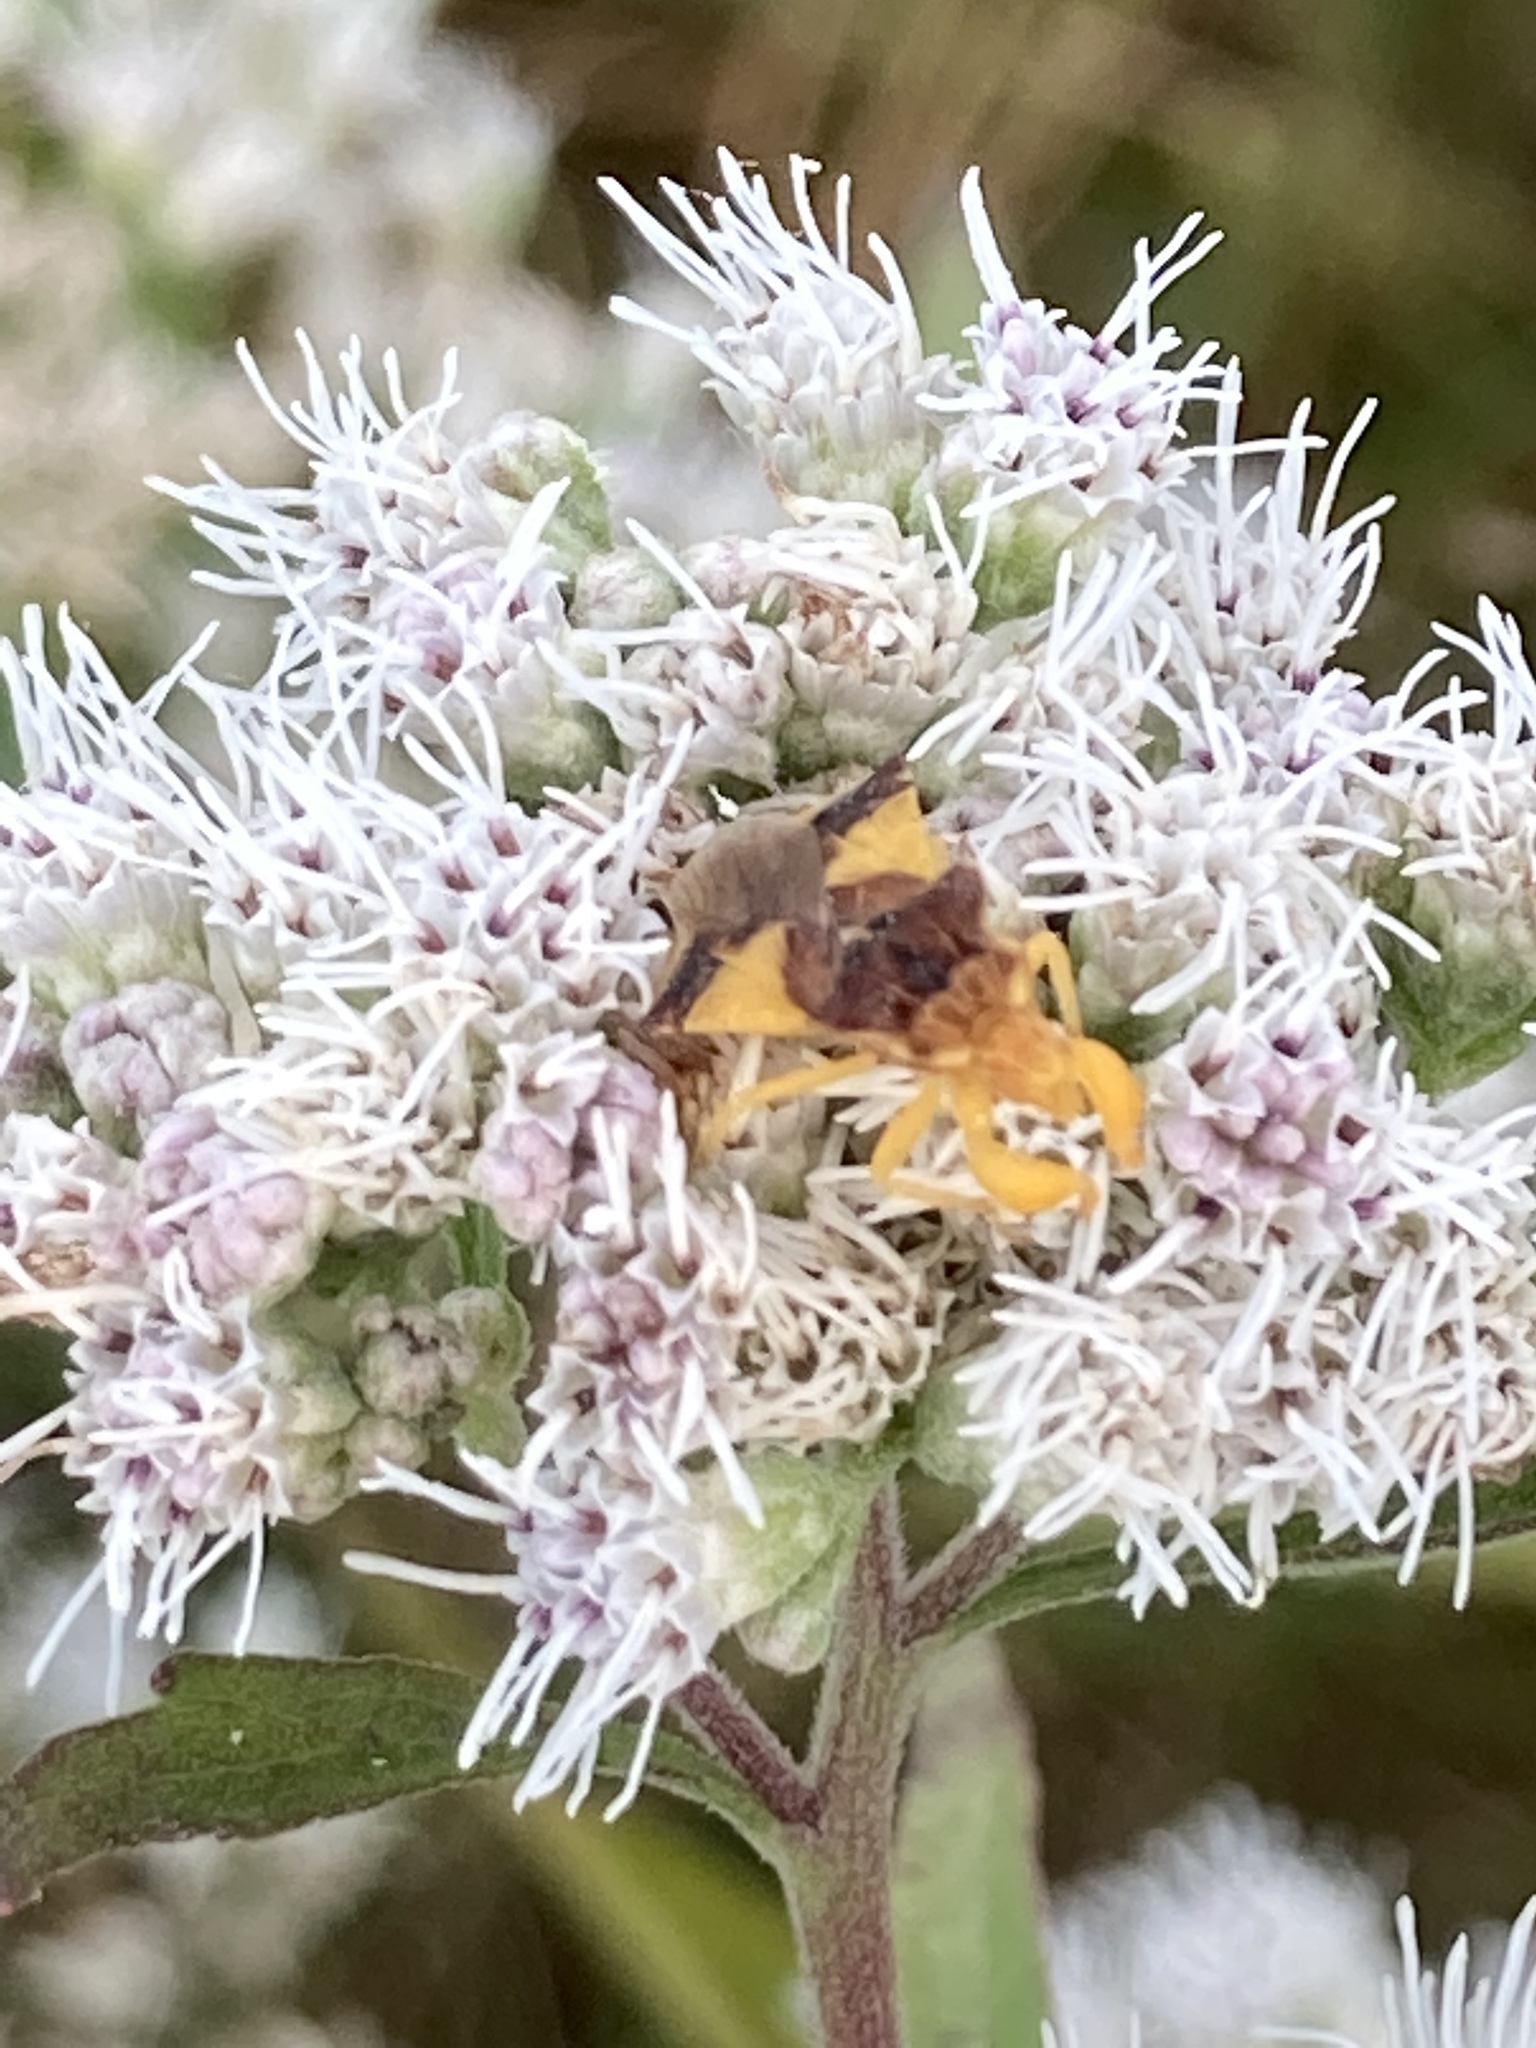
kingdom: Animalia
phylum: Arthropoda
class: Insecta
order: Hemiptera
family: Reduviidae
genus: Phymata
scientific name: Phymata pennsylvanica
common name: Pennsylvania ambush bug
